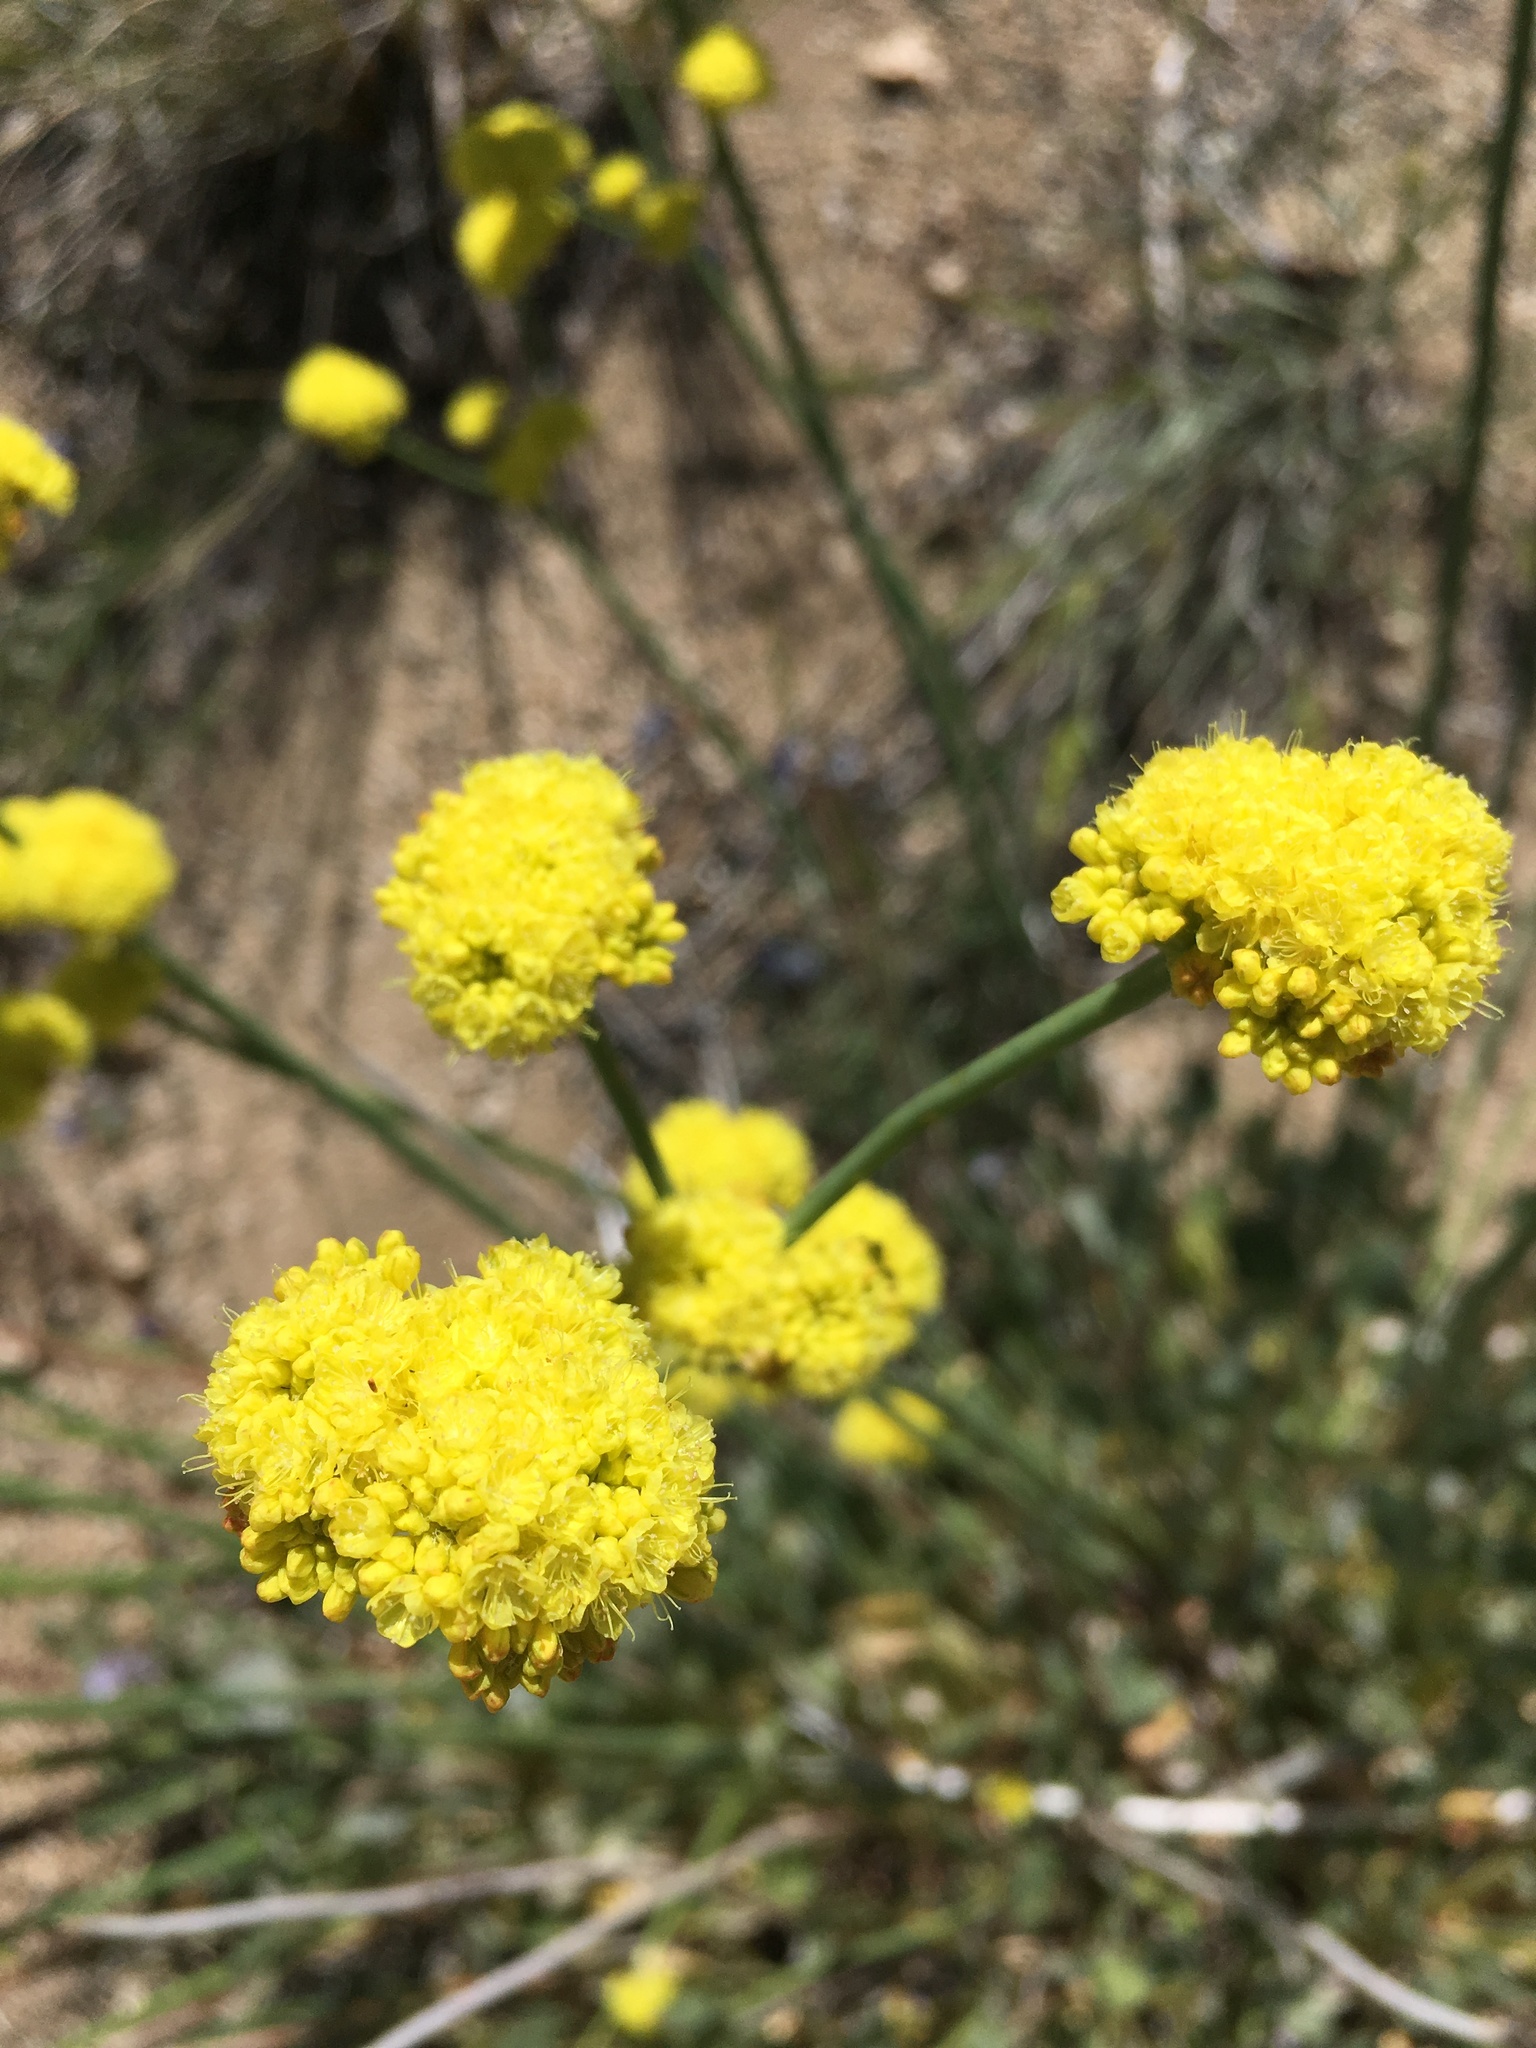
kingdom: Plantae
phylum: Tracheophyta
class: Magnoliopsida
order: Caryophyllales
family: Polygonaceae
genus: Eriogonum
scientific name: Eriogonum nudum
